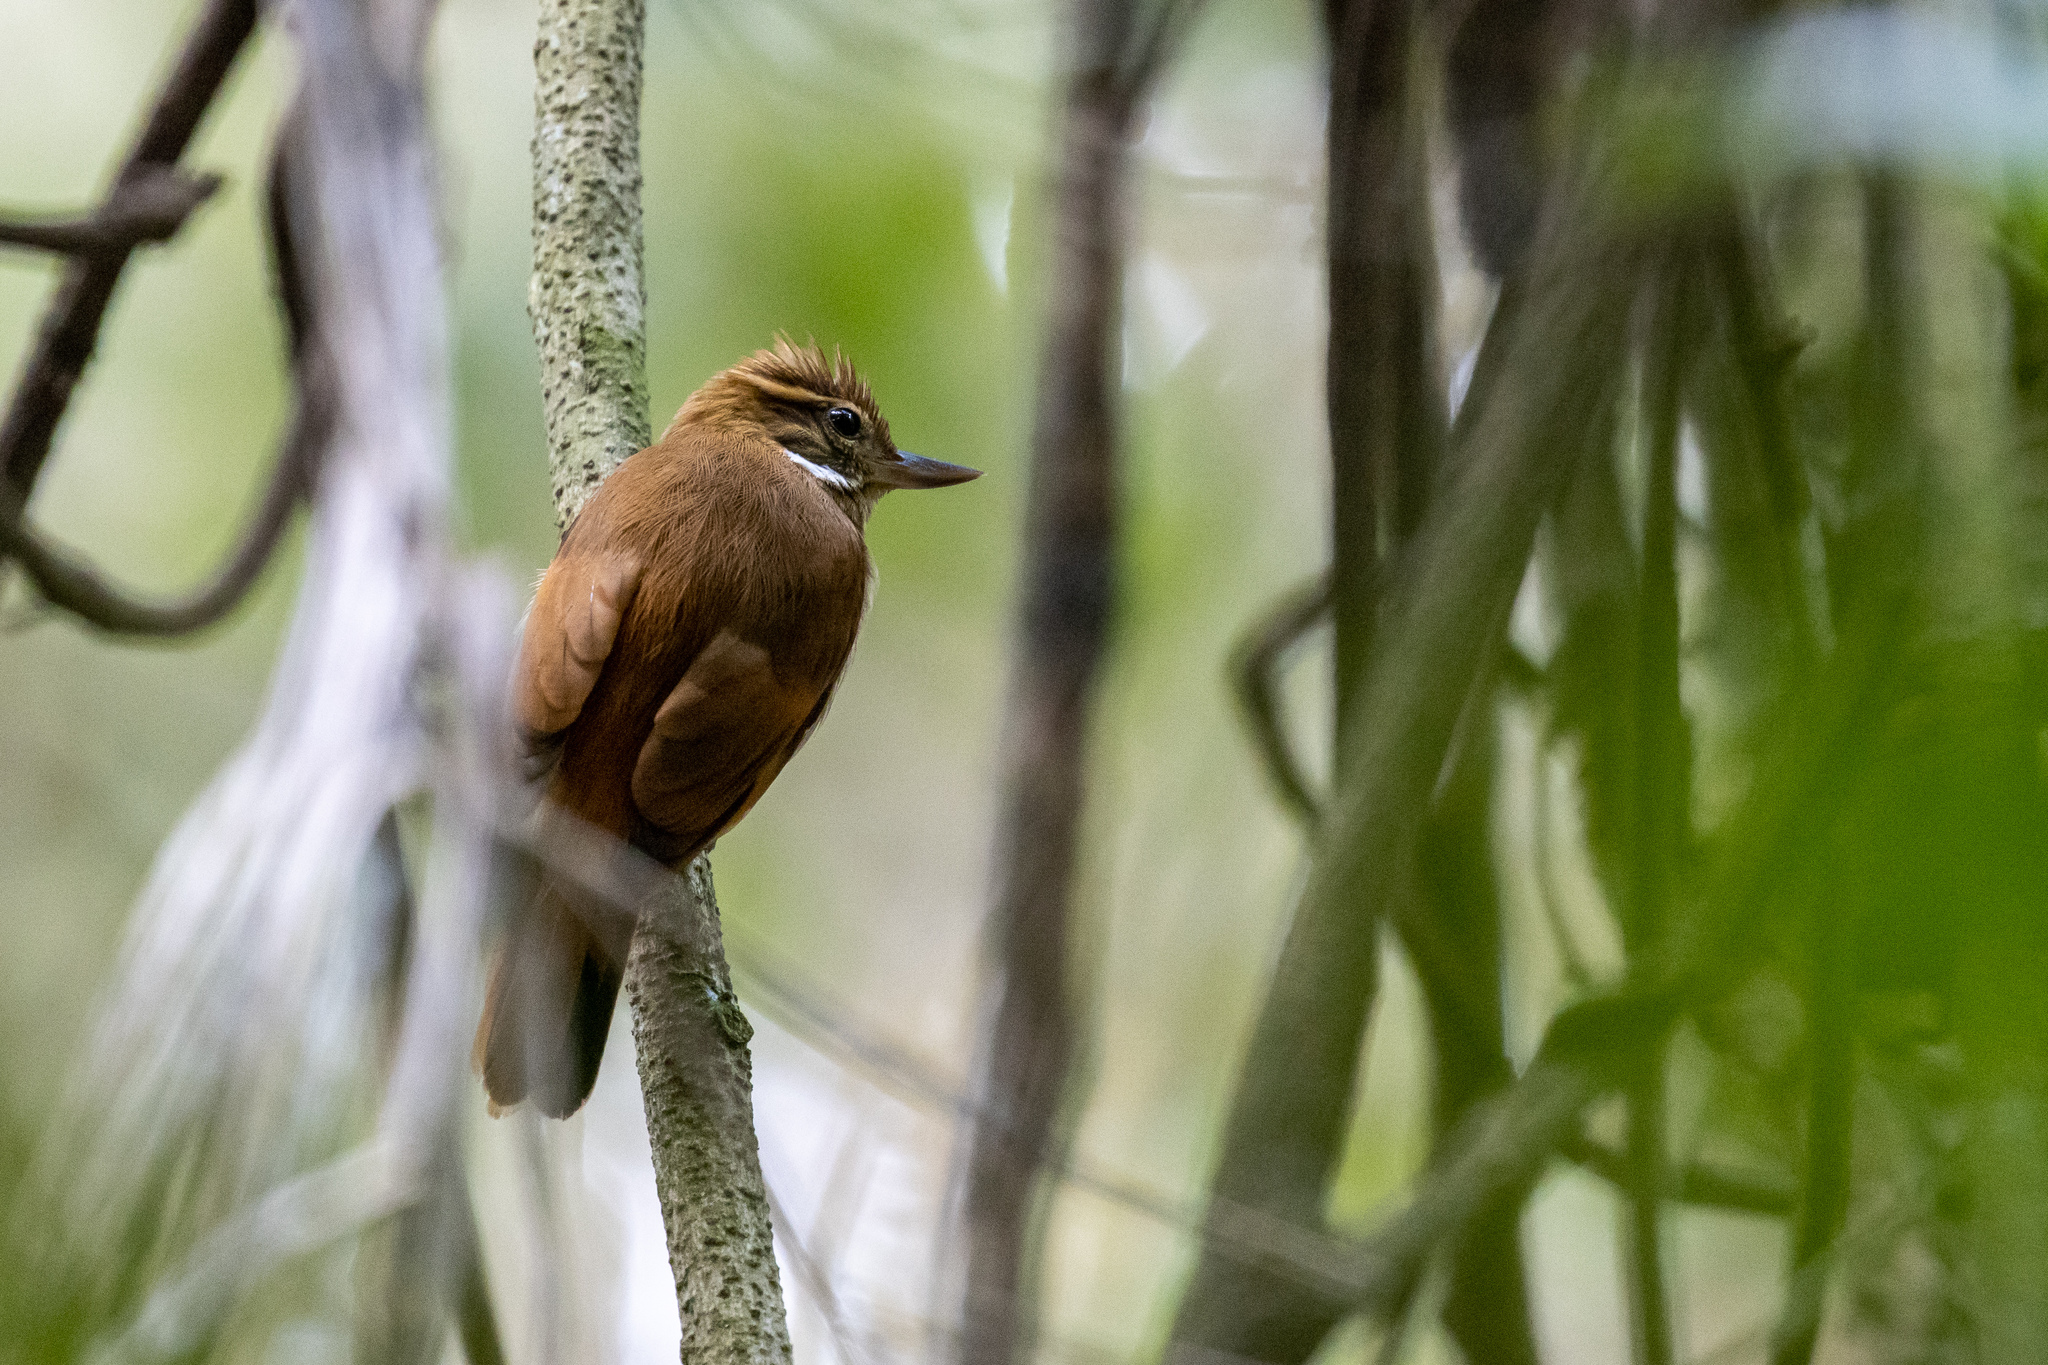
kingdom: Animalia
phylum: Chordata
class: Aves
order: Passeriformes
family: Furnariidae
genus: Xenops
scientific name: Xenops minutus
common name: Plain xenops
